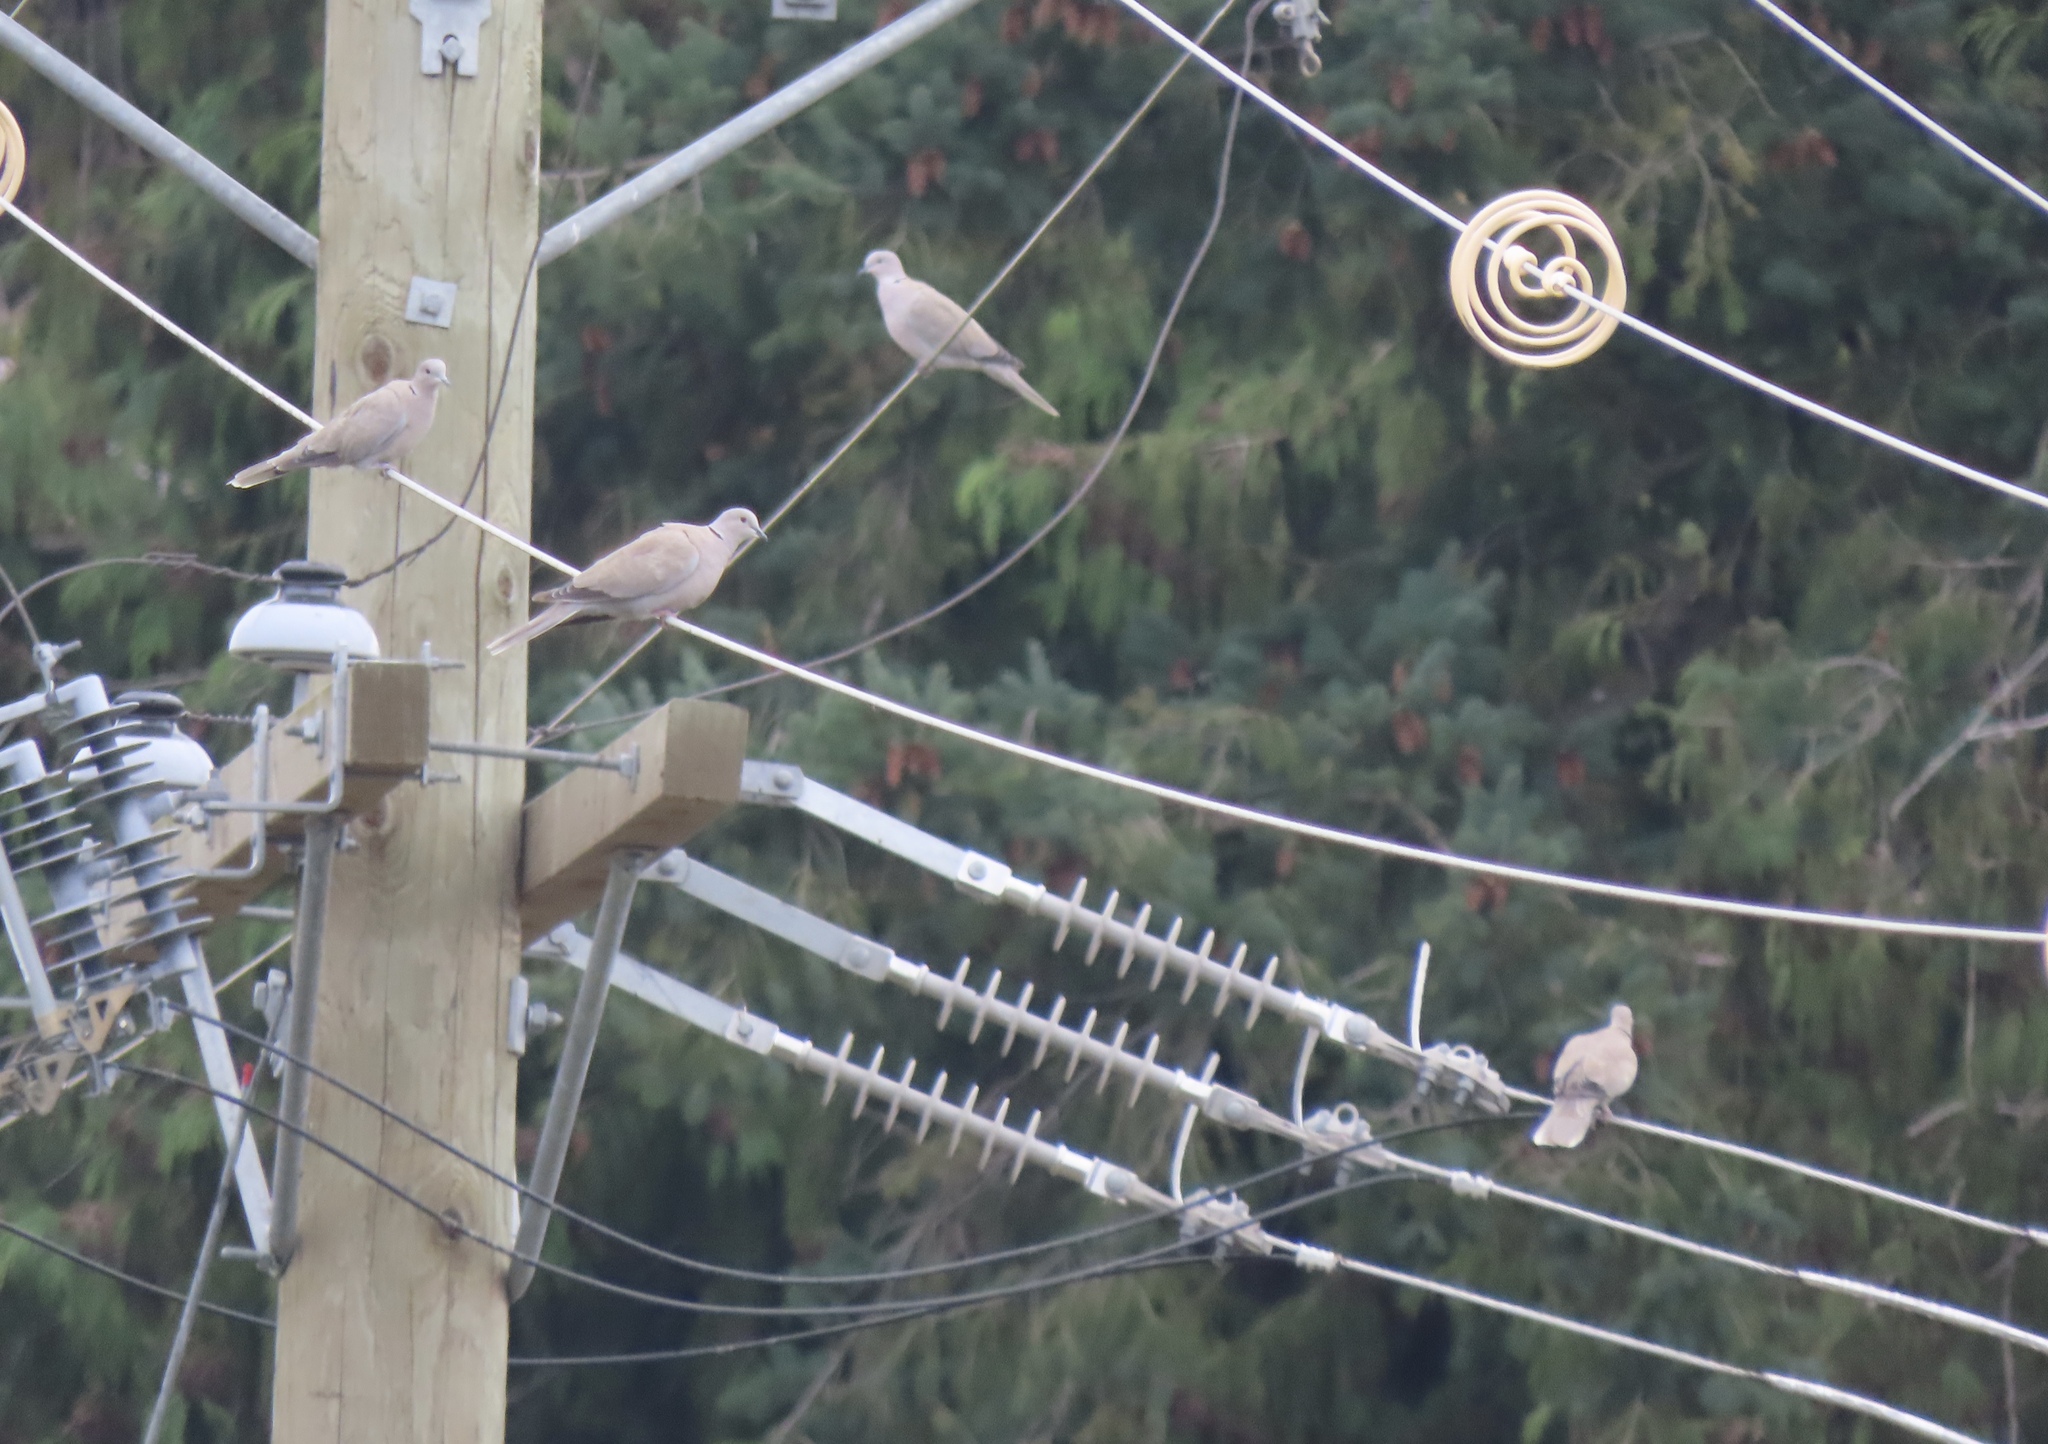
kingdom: Animalia
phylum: Chordata
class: Aves
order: Columbiformes
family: Columbidae
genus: Streptopelia
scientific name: Streptopelia decaocto
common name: Eurasian collared dove
